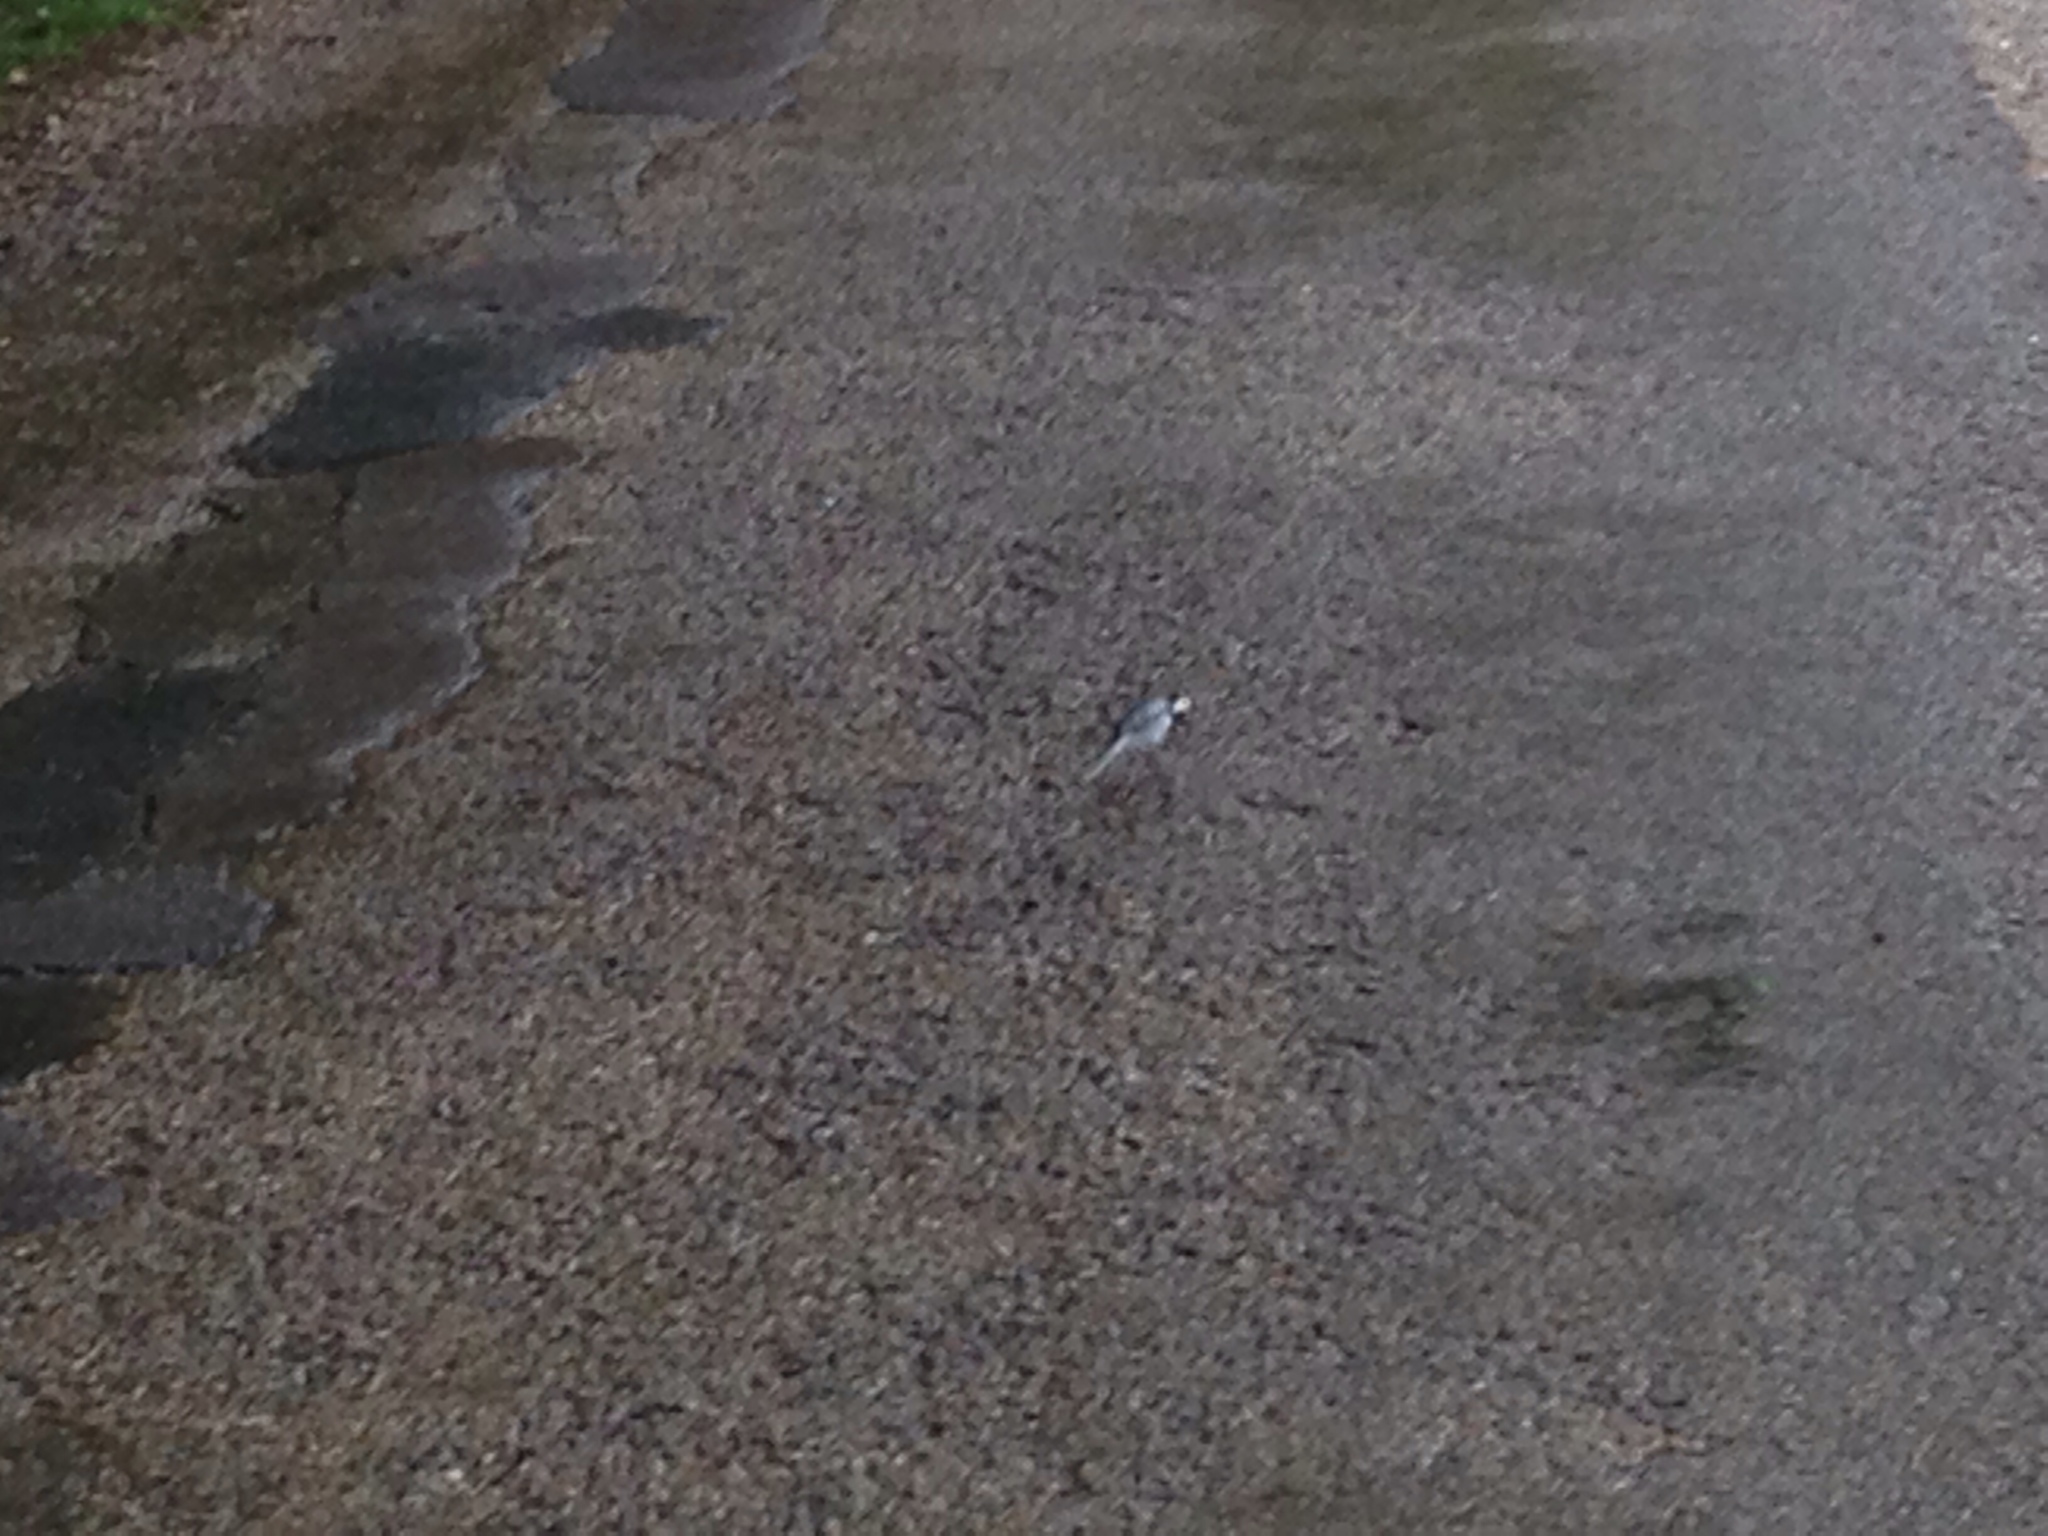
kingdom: Animalia
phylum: Chordata
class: Aves
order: Passeriformes
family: Motacillidae
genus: Motacilla
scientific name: Motacilla alba
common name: White wagtail
